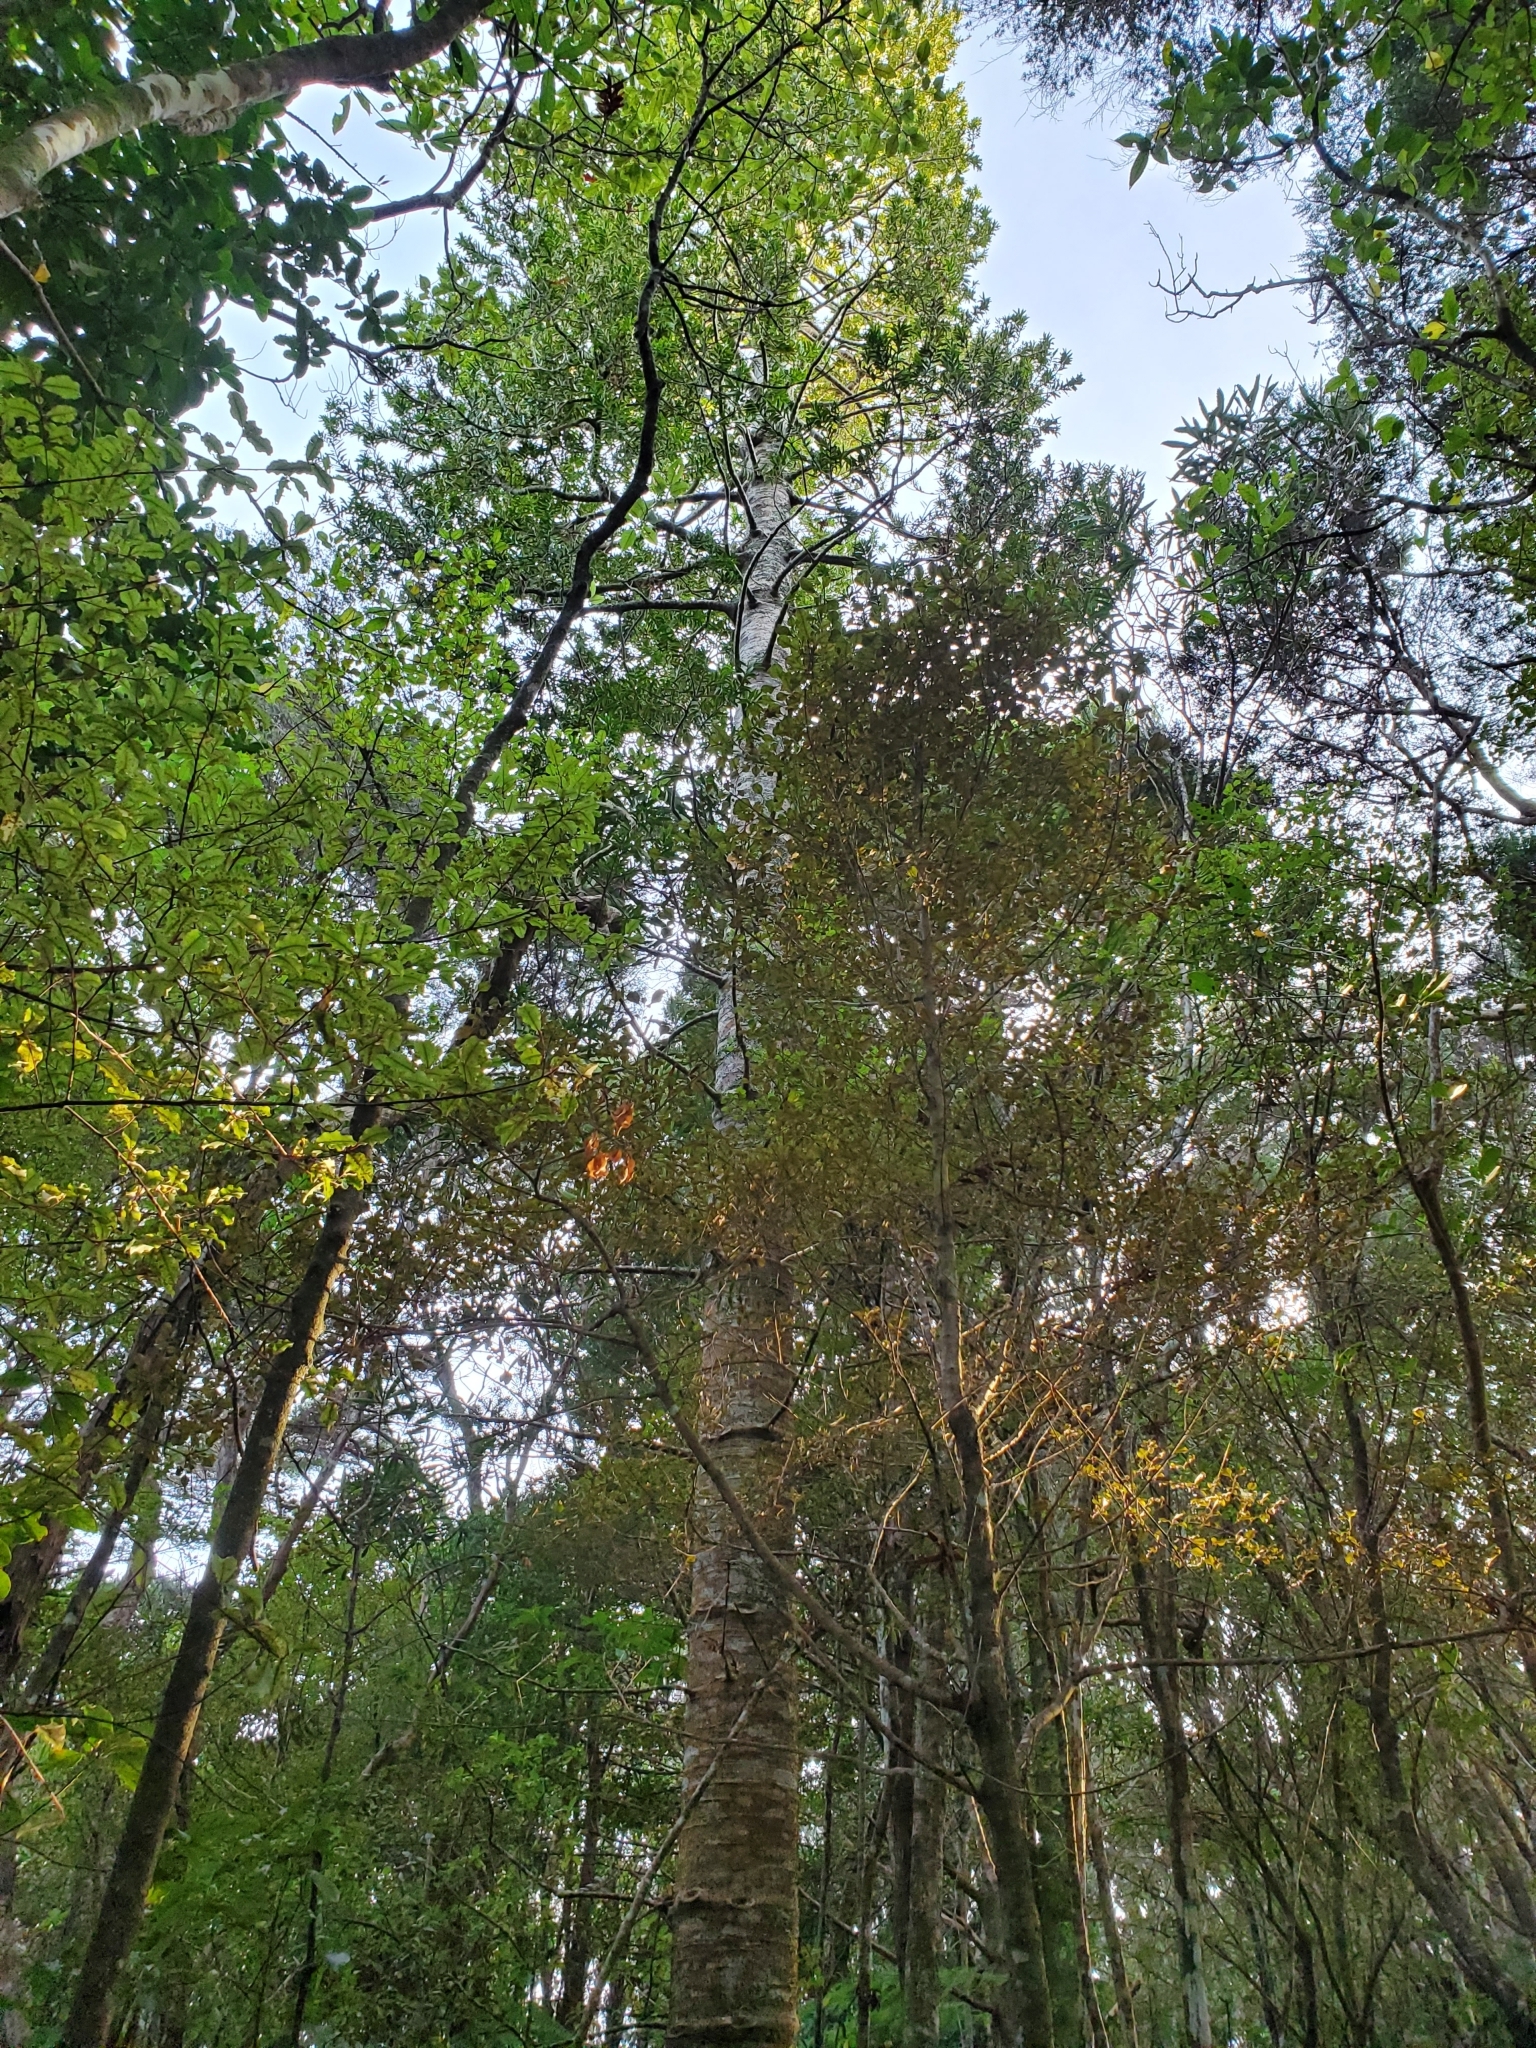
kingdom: Plantae
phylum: Tracheophyta
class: Pinopsida
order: Pinales
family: Araucariaceae
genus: Agathis
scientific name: Agathis australis
